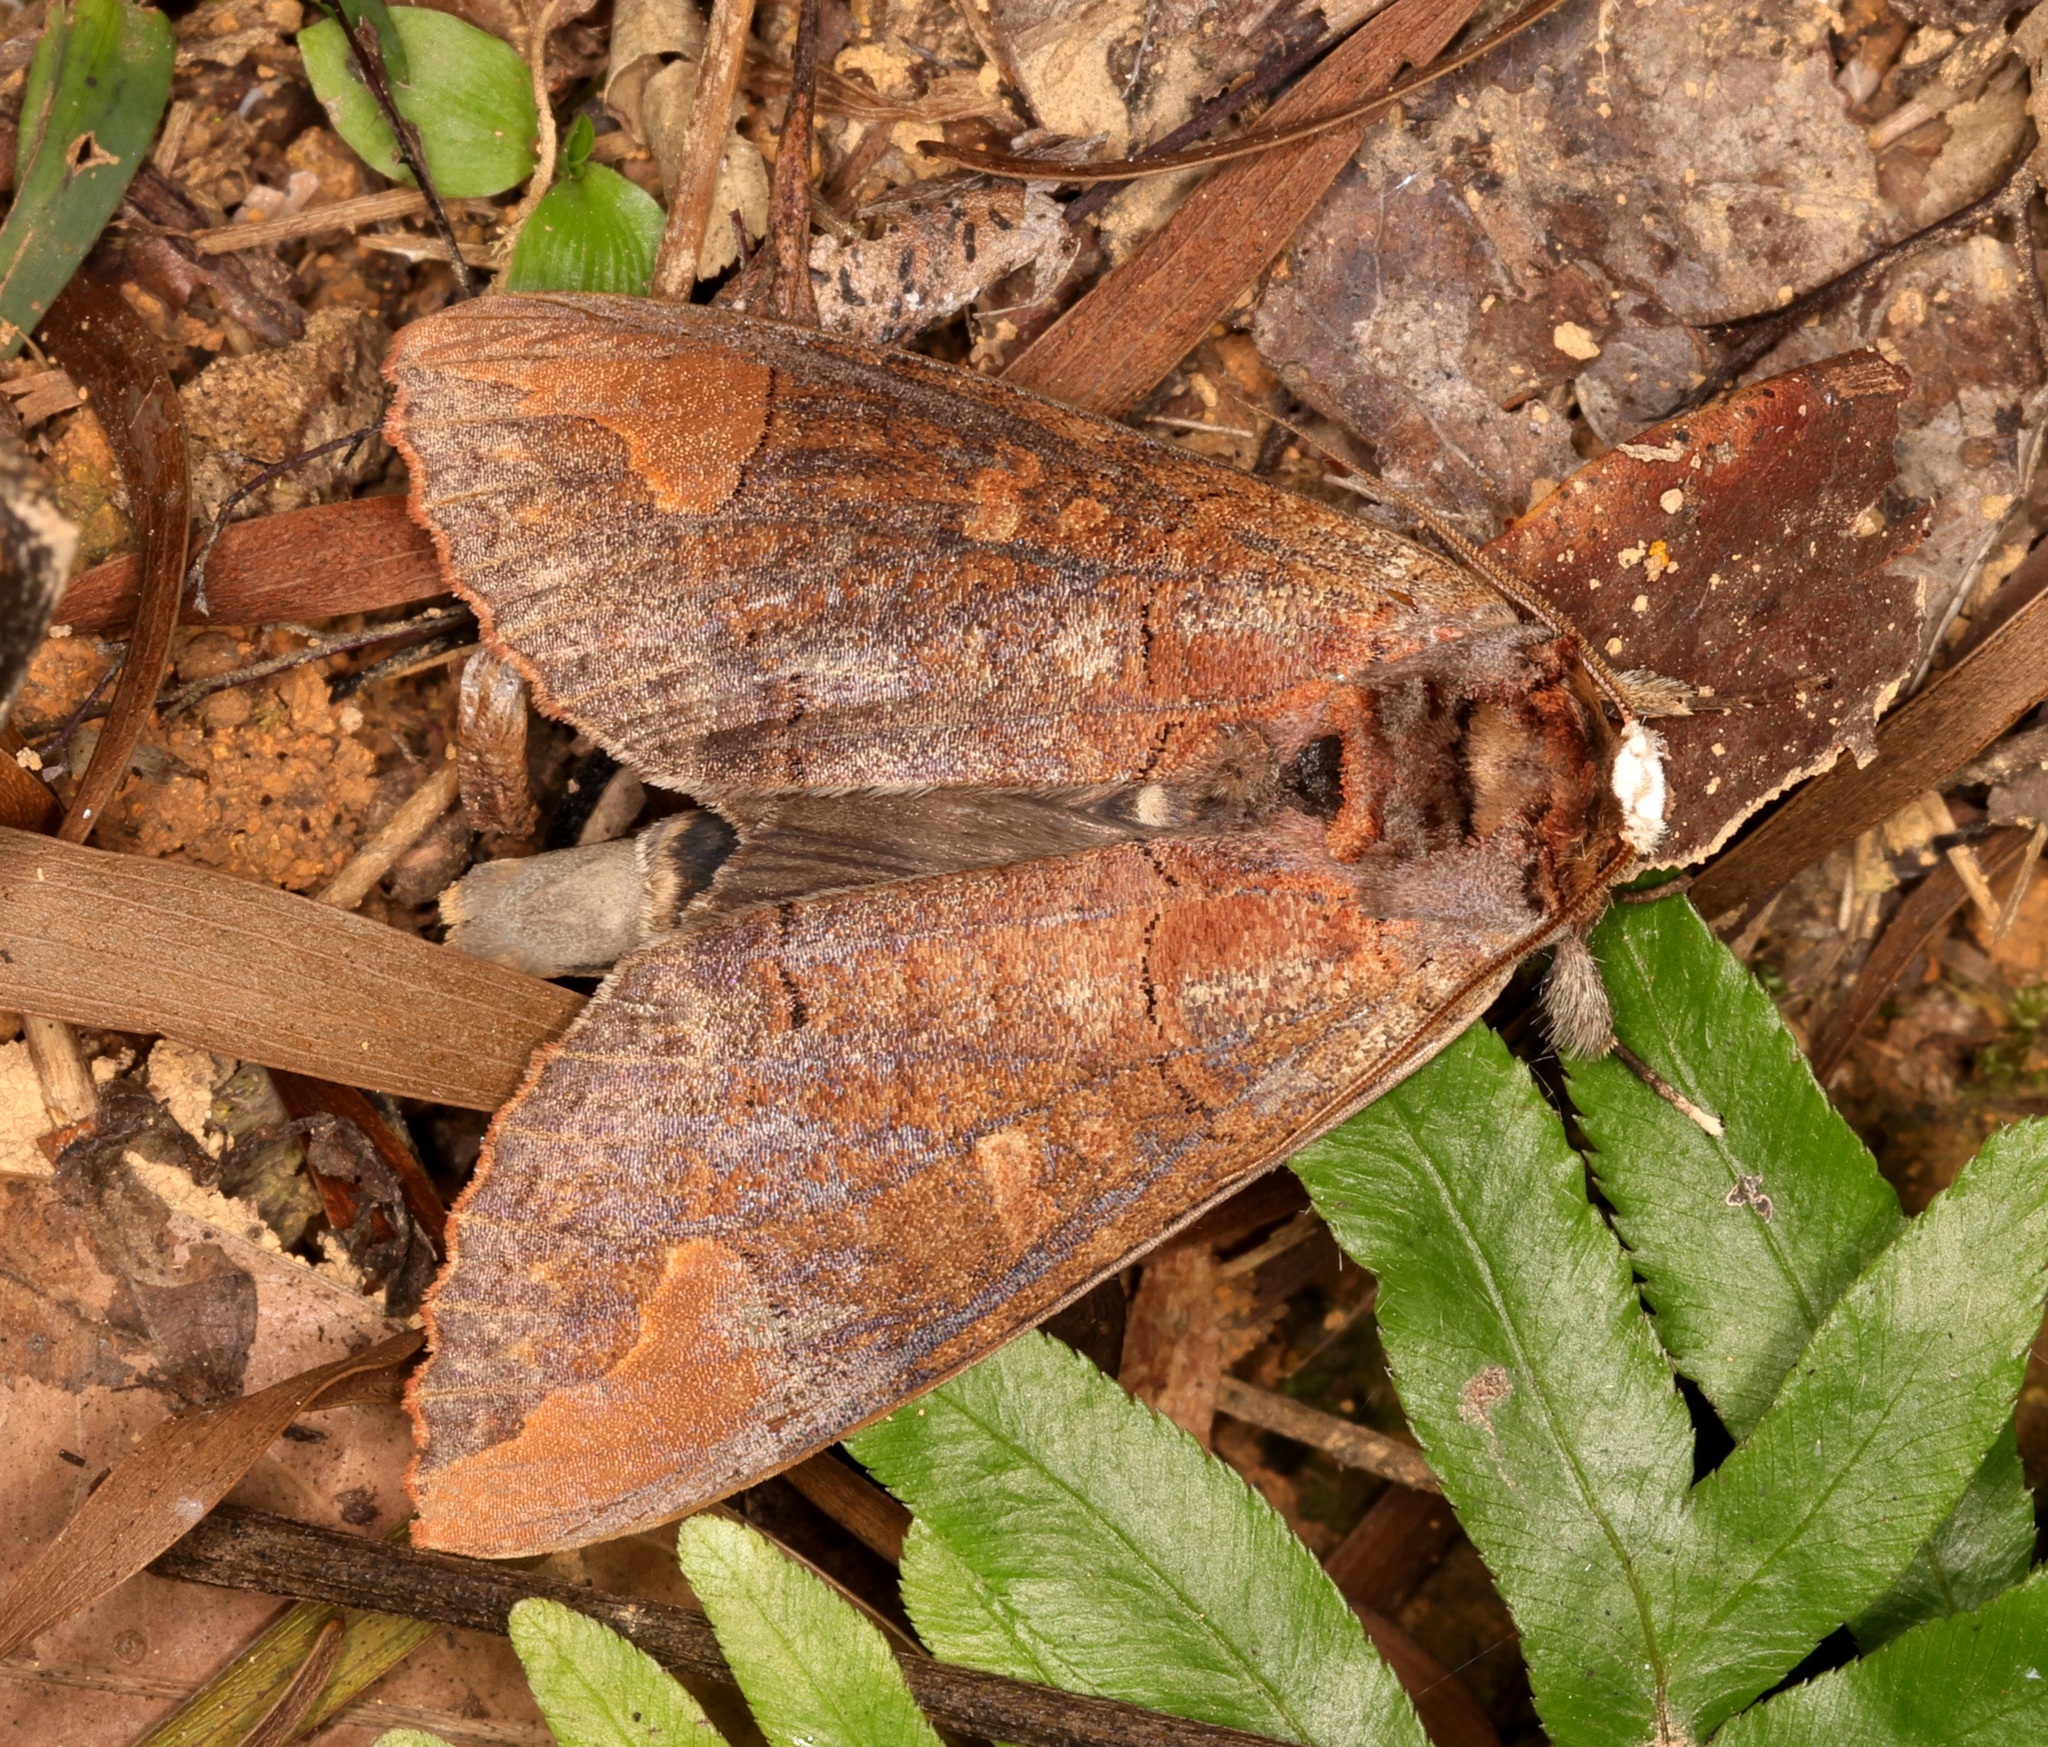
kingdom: Animalia
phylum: Arthropoda
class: Insecta
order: Lepidoptera
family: Notodontidae
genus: Phalera
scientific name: Phalera grotei
